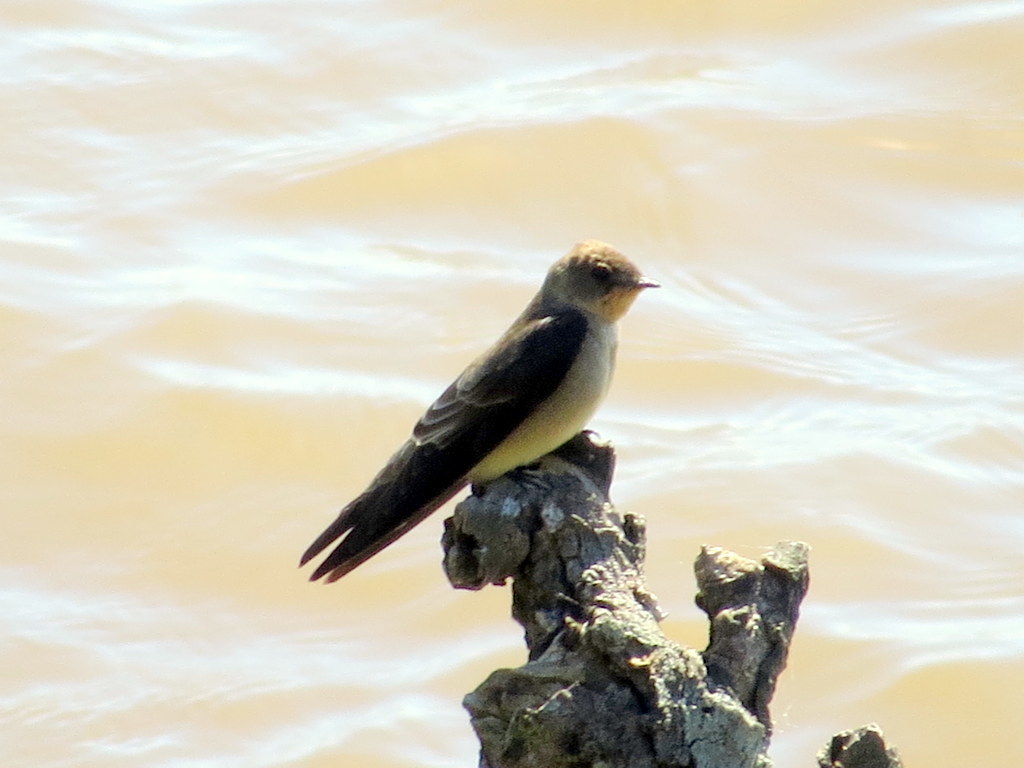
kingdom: Animalia
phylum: Chordata
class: Aves
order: Passeriformes
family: Hirundinidae
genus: Stelgidopteryx
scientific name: Stelgidopteryx ruficollis
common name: Southern rough-winged swallow
